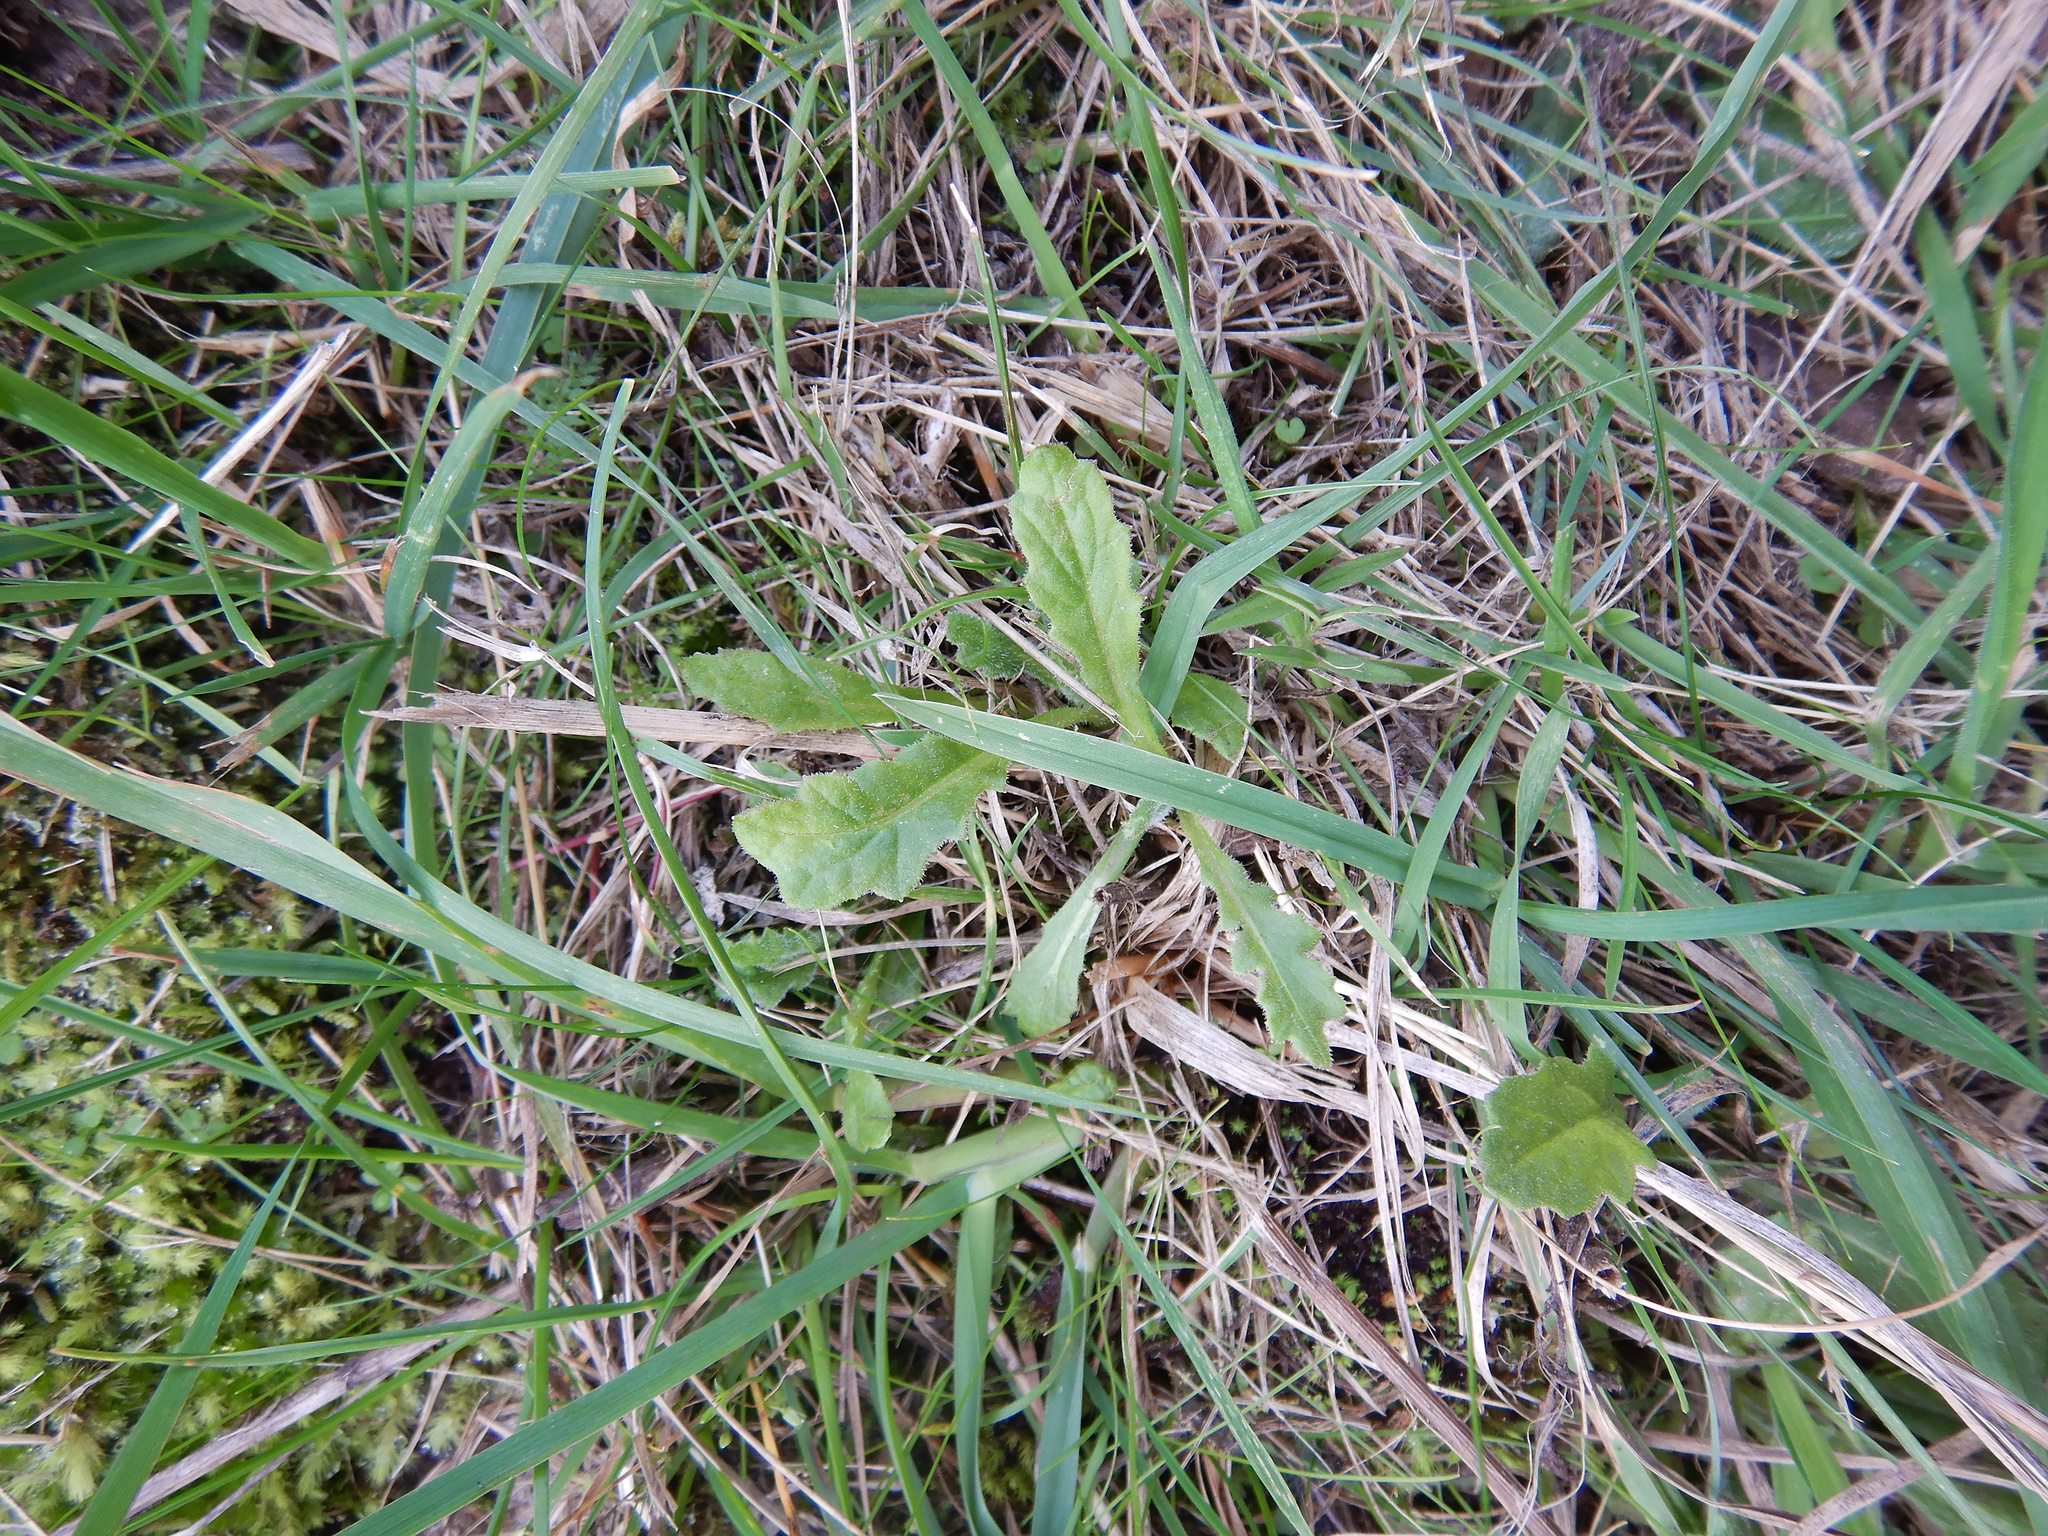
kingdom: Plantae
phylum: Tracheophyta
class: Magnoliopsida
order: Asterales
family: Asteraceae
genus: Senecio
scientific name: Senecio glomeratus
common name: Cutleaf burnweed
